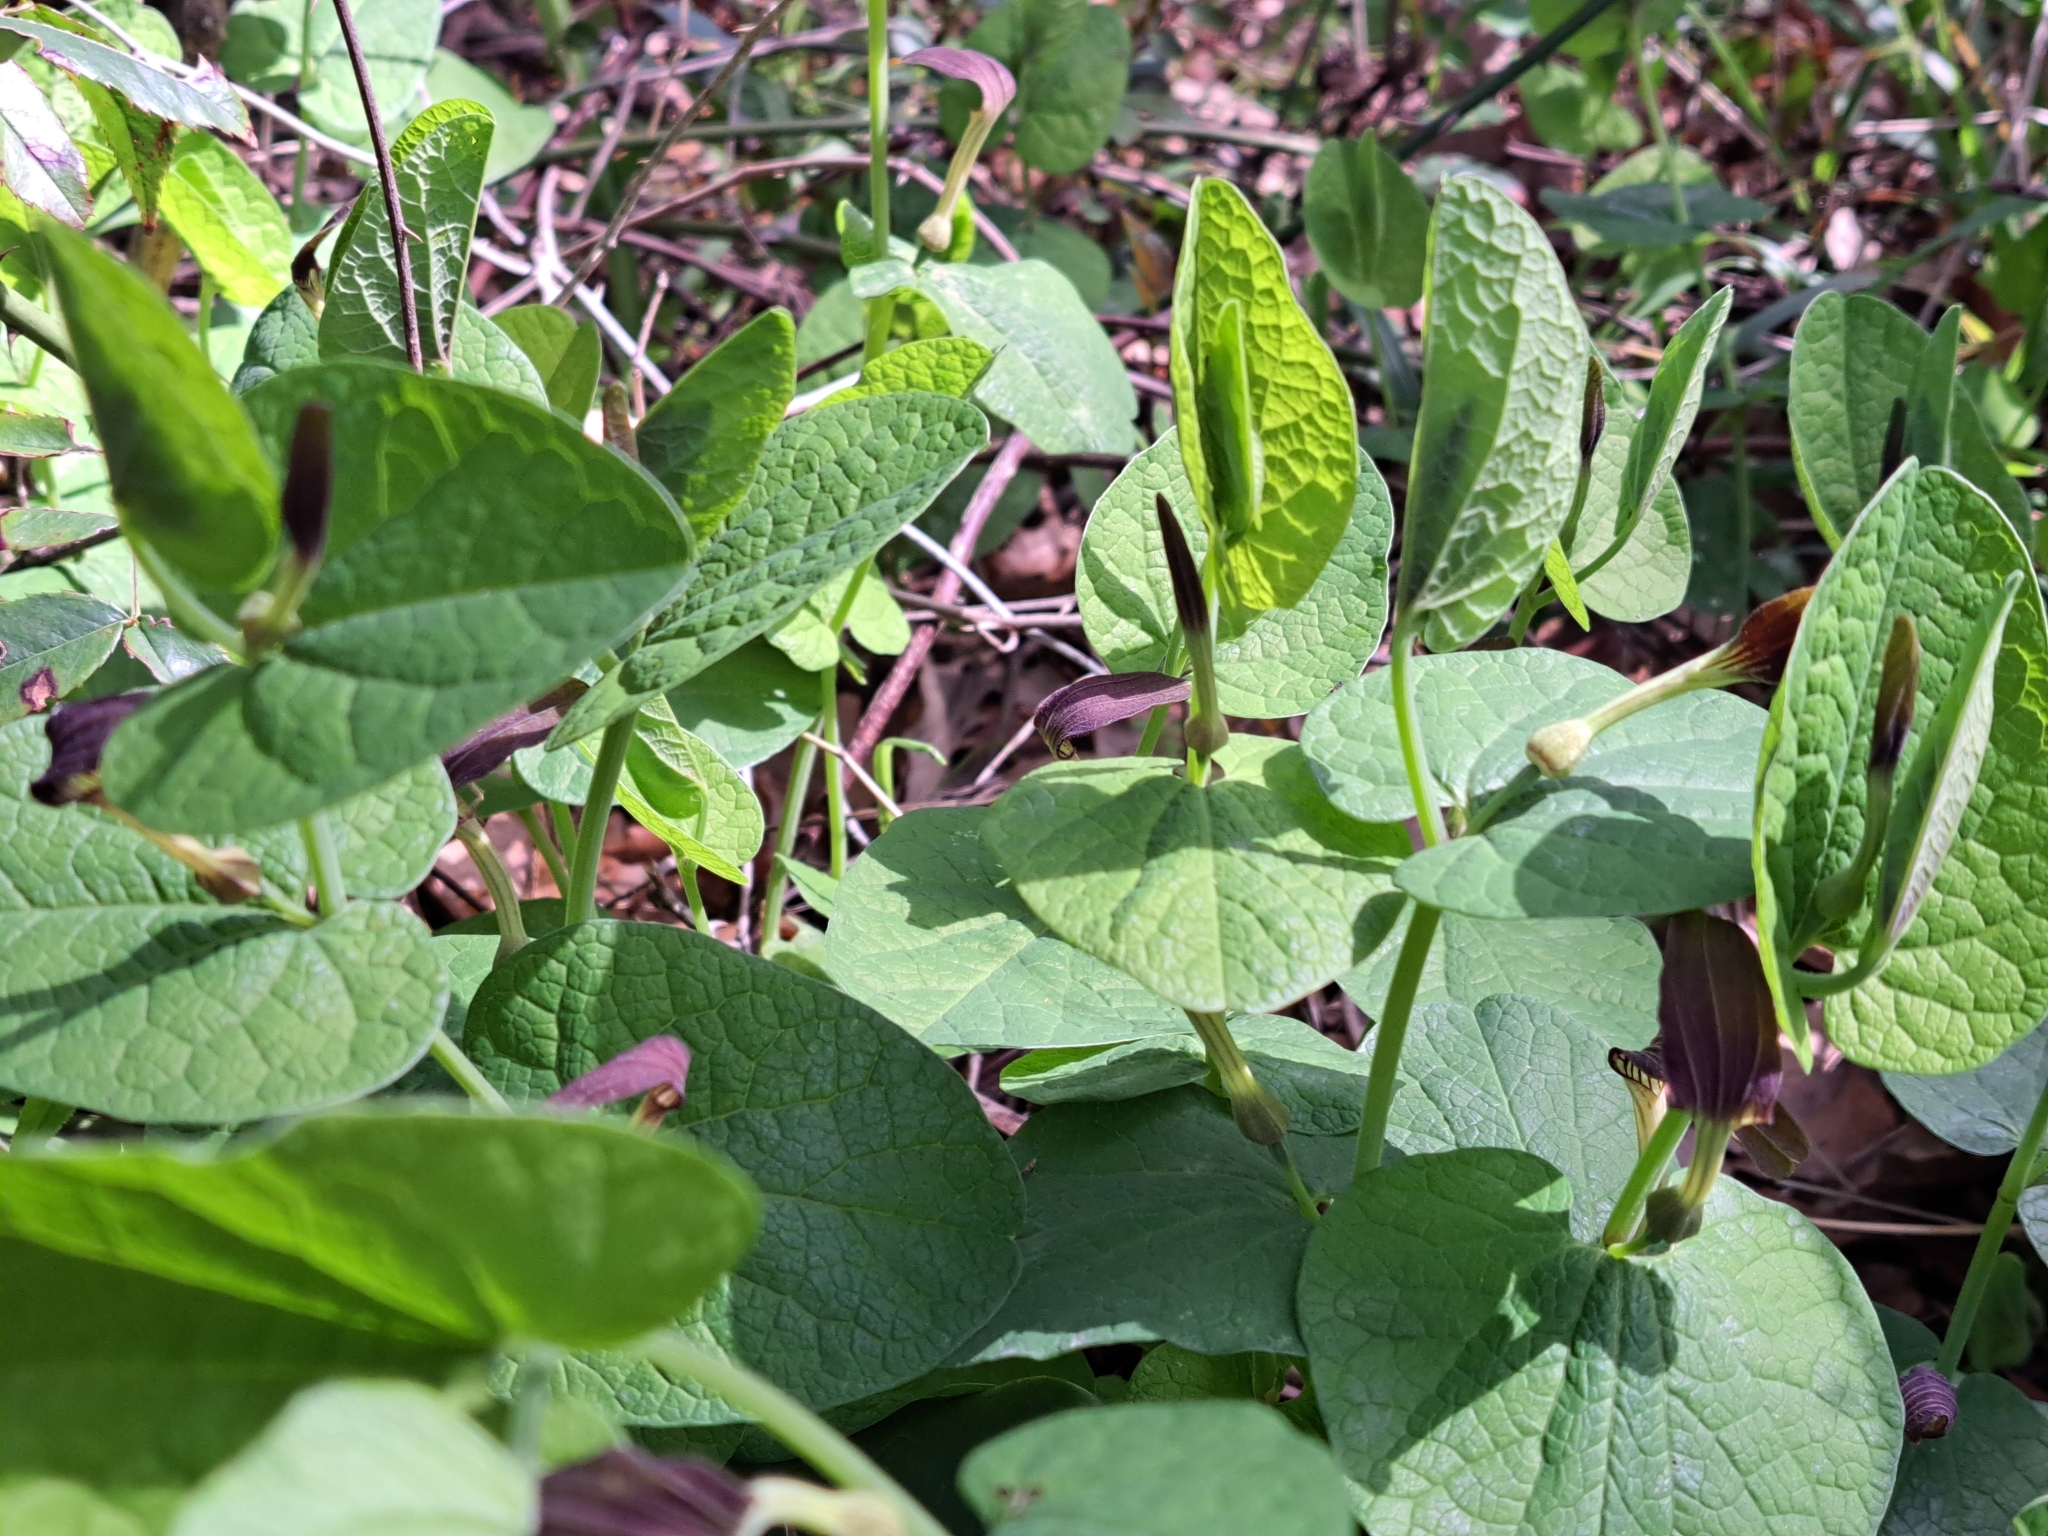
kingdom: Plantae
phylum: Tracheophyta
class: Magnoliopsida
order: Piperales
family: Aristolochiaceae
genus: Aristolochia
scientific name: Aristolochia rotunda
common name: Smearwort
